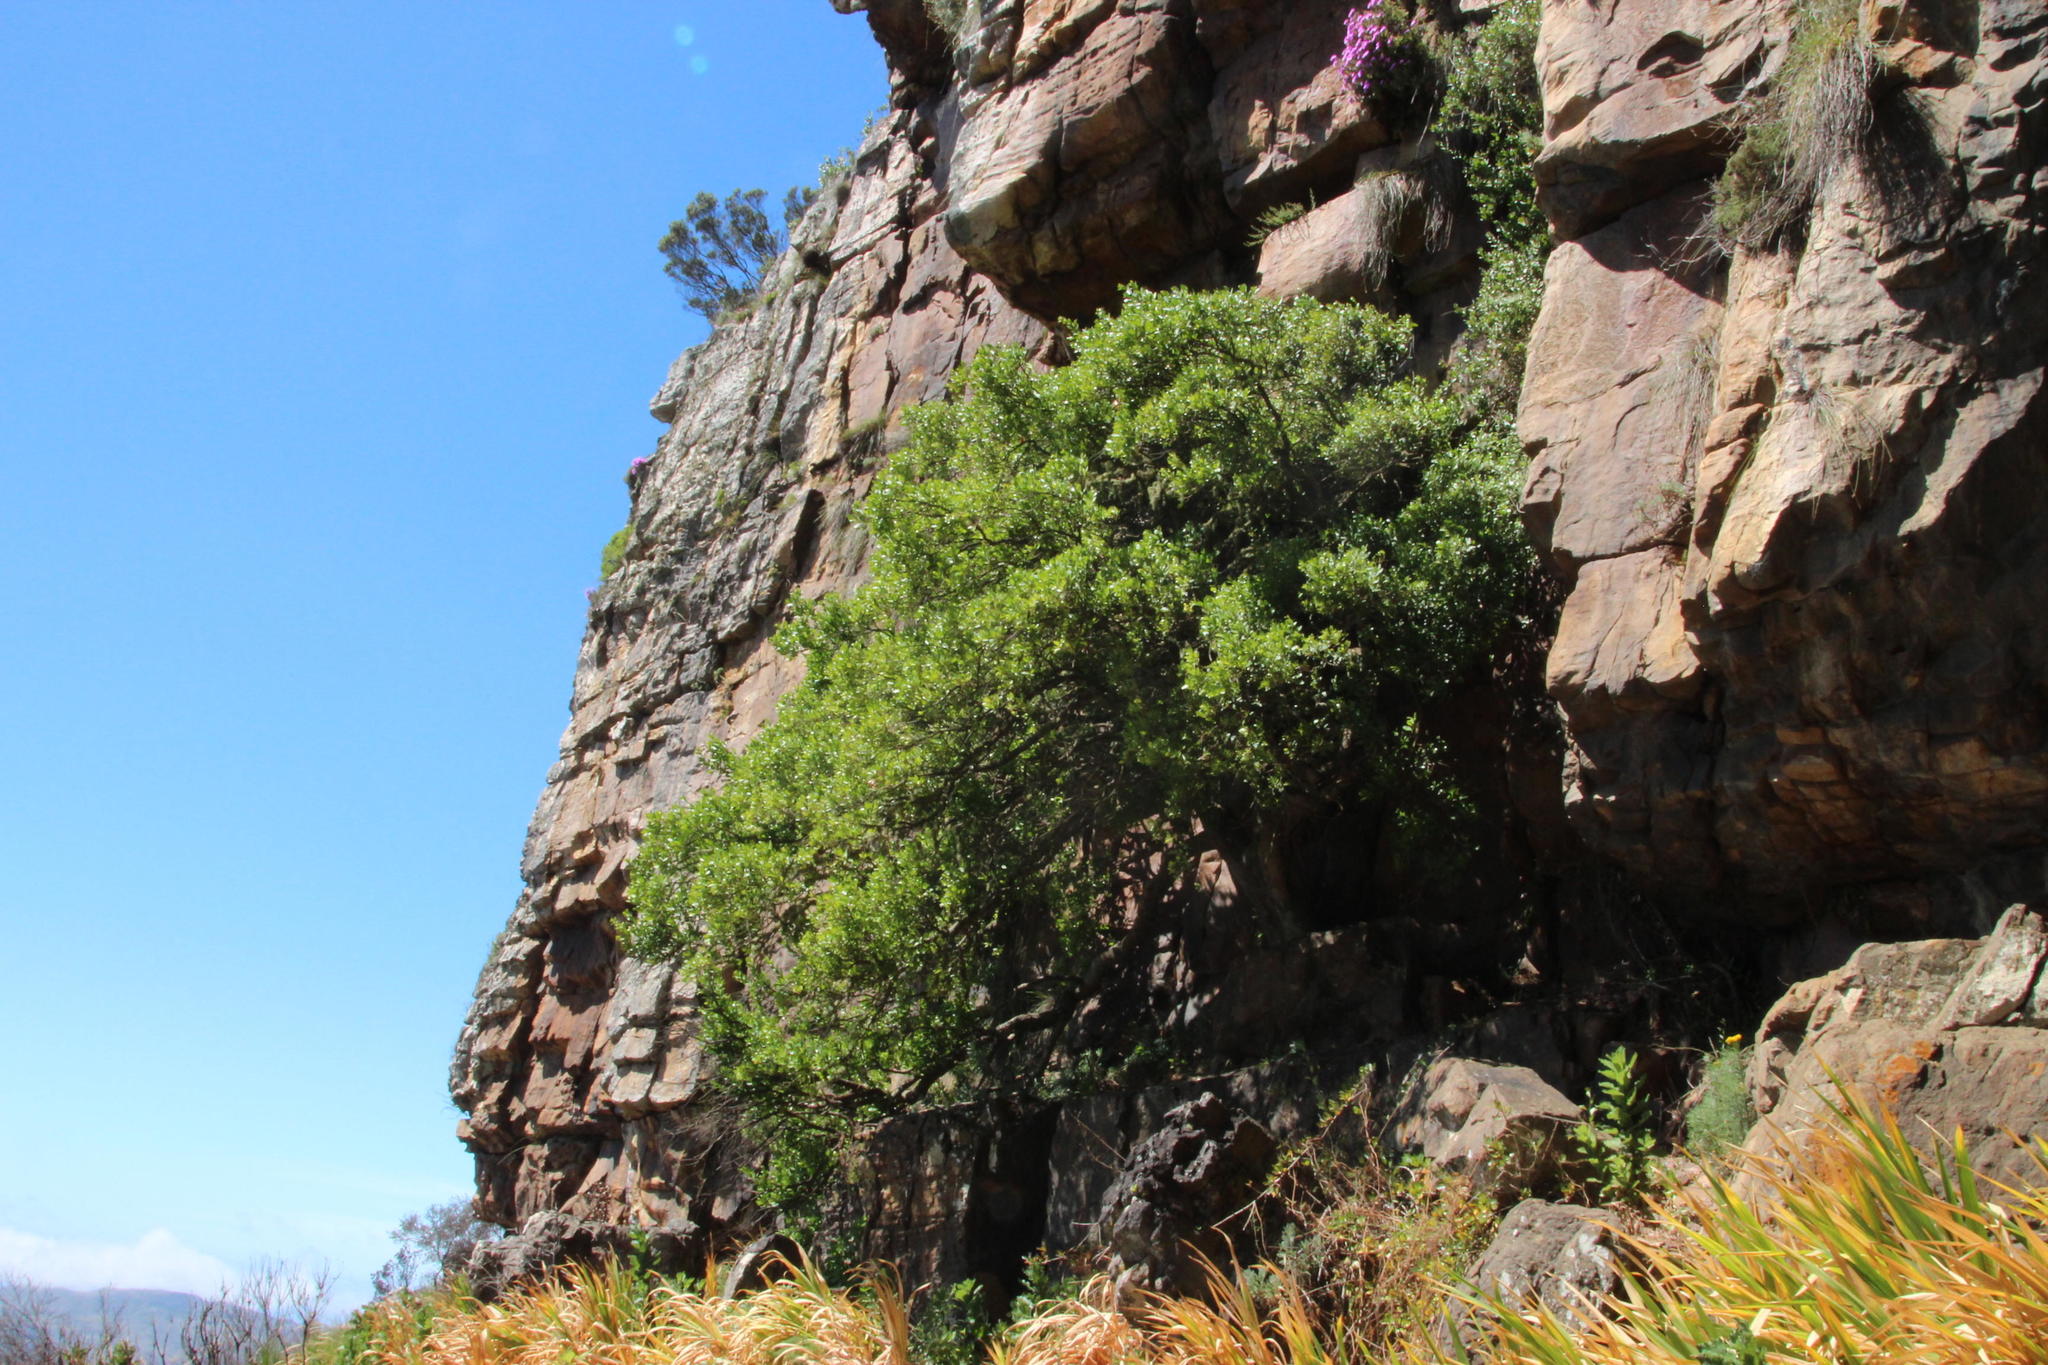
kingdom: Plantae
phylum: Tracheophyta
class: Magnoliopsida
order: Celastrales
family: Celastraceae
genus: Gymnosporia
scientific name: Gymnosporia laurina
